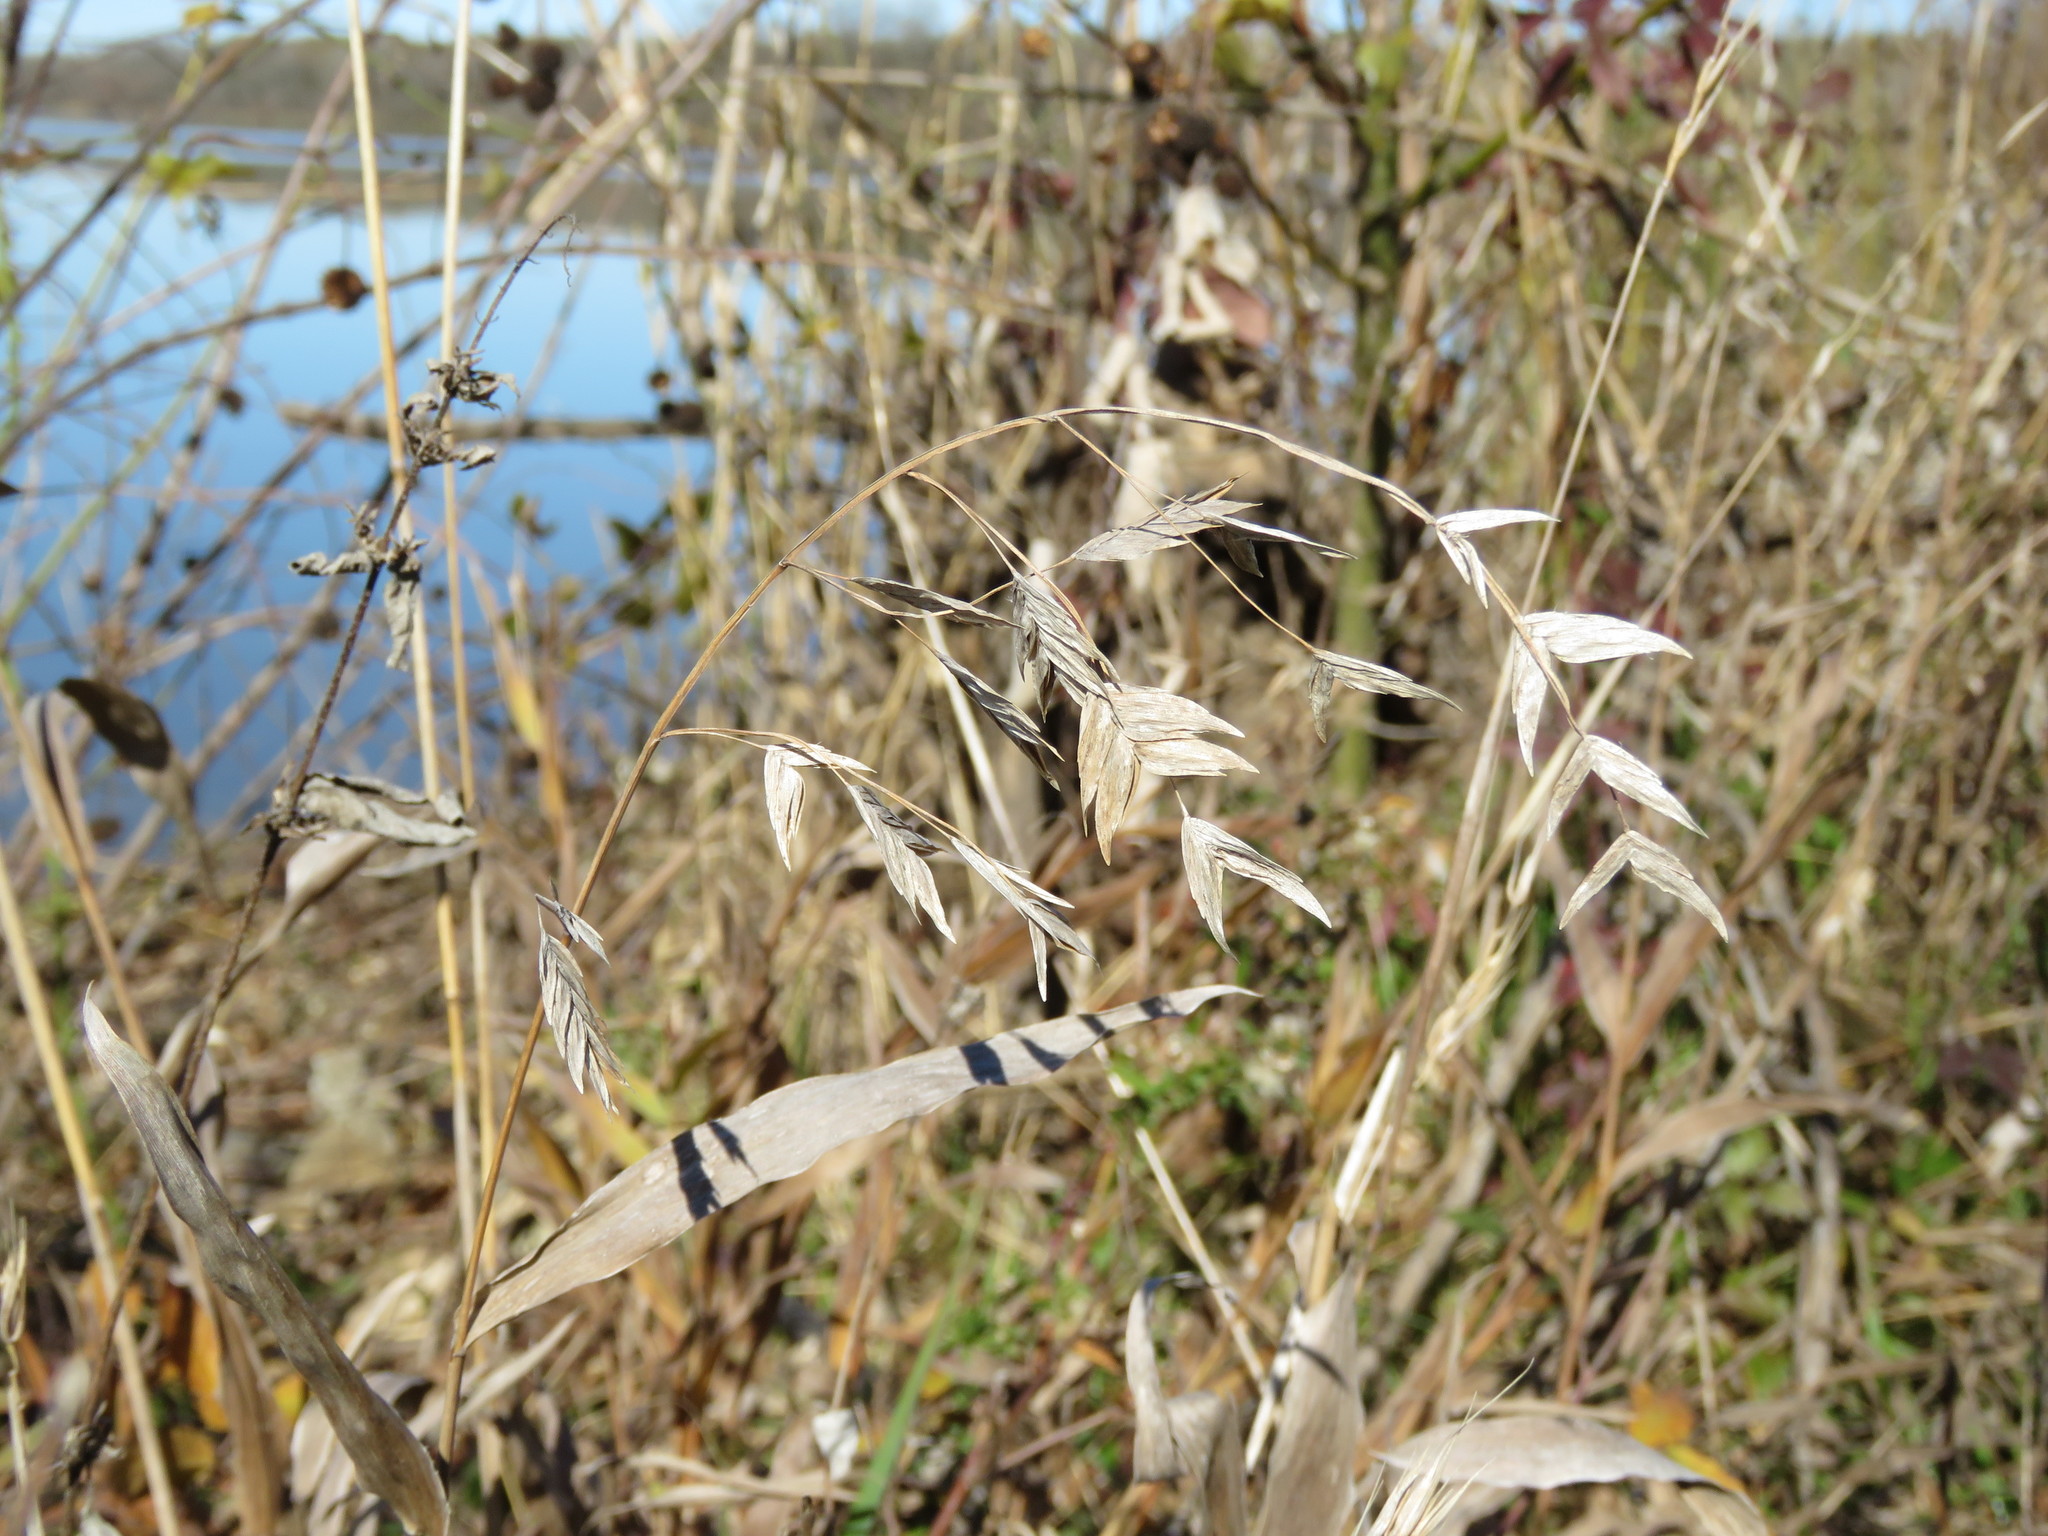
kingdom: Plantae
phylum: Tracheophyta
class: Liliopsida
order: Poales
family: Poaceae
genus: Chasmanthium
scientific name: Chasmanthium latifolium
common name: Broad-leaved chasmanthium
